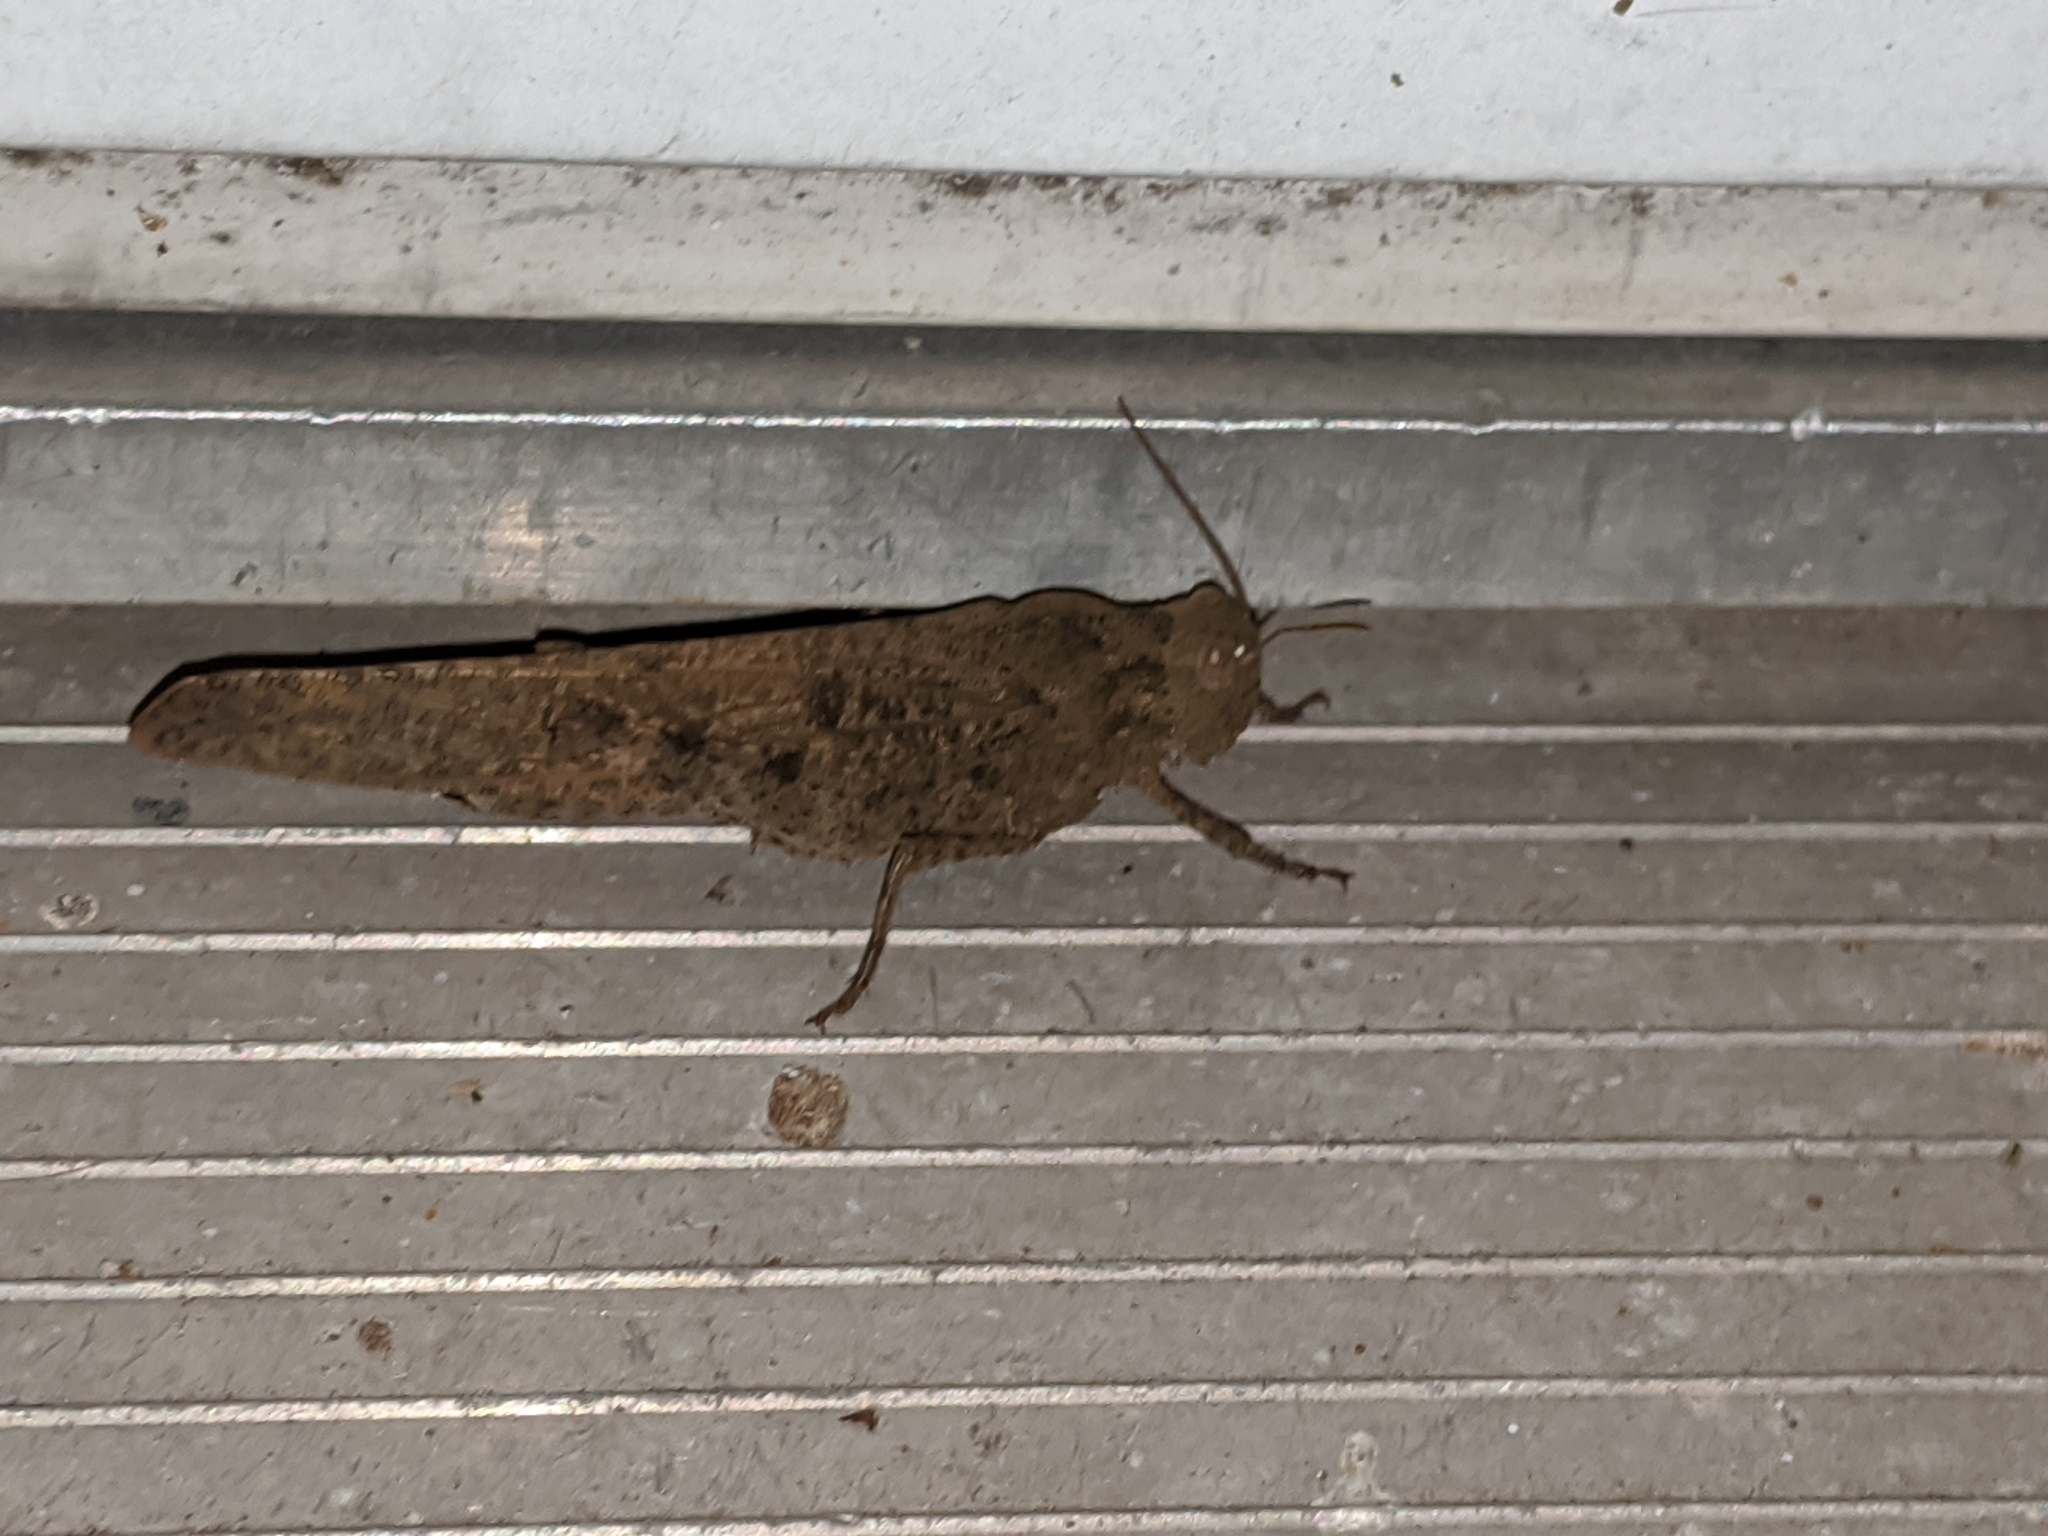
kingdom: Animalia
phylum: Arthropoda
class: Insecta
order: Orthoptera
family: Acrididae
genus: Dissosteira
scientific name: Dissosteira carolina
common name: Carolina grasshopper
